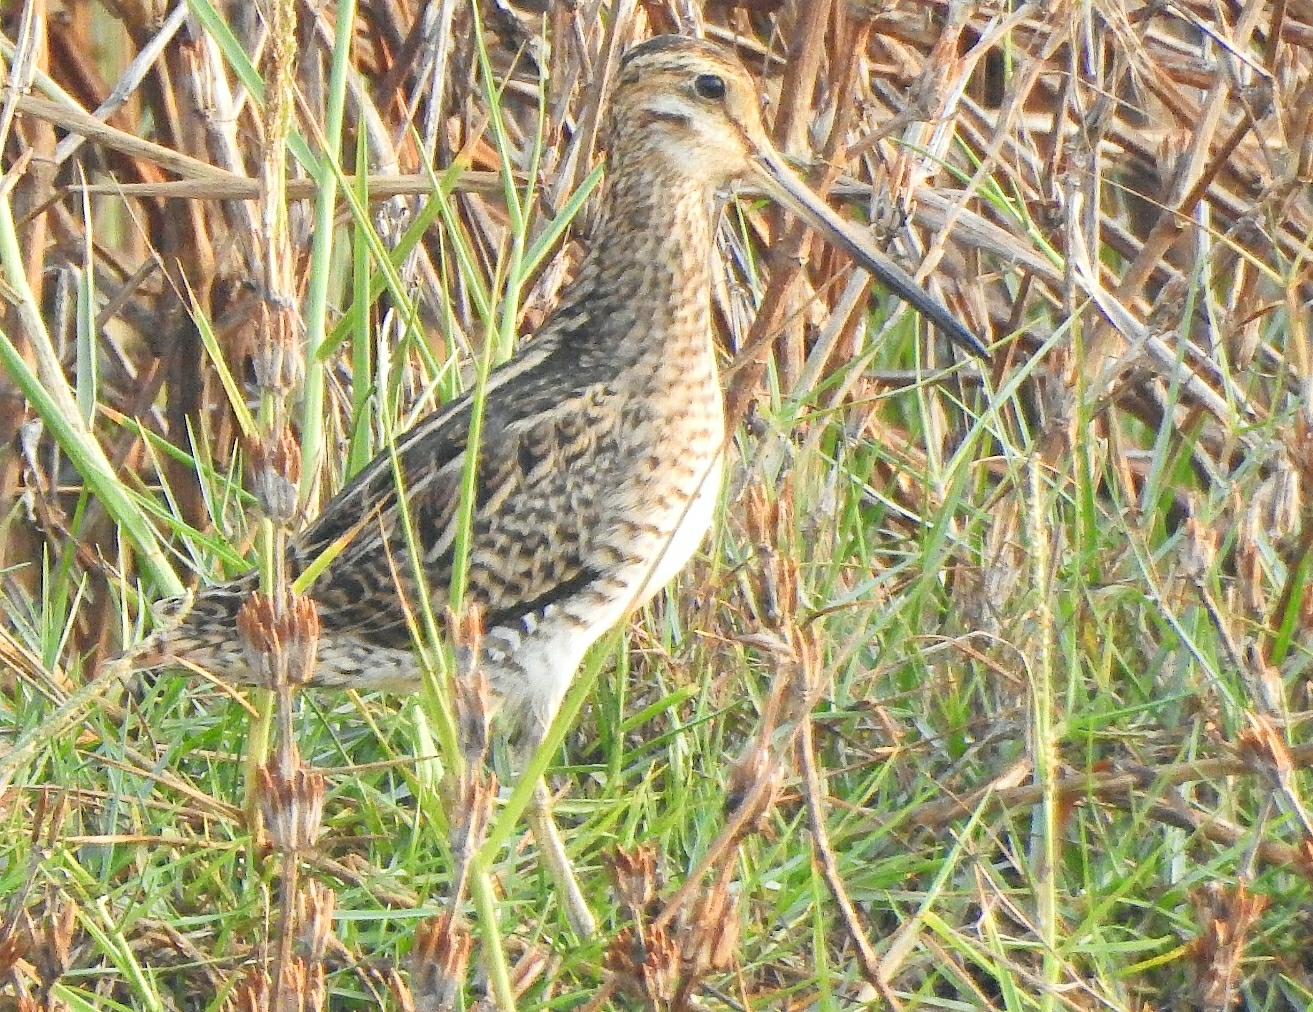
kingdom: Animalia
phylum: Chordata
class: Aves
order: Charadriiformes
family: Scolopacidae
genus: Gallinago
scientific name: Gallinago stenura
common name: Pin-tailed snipe
